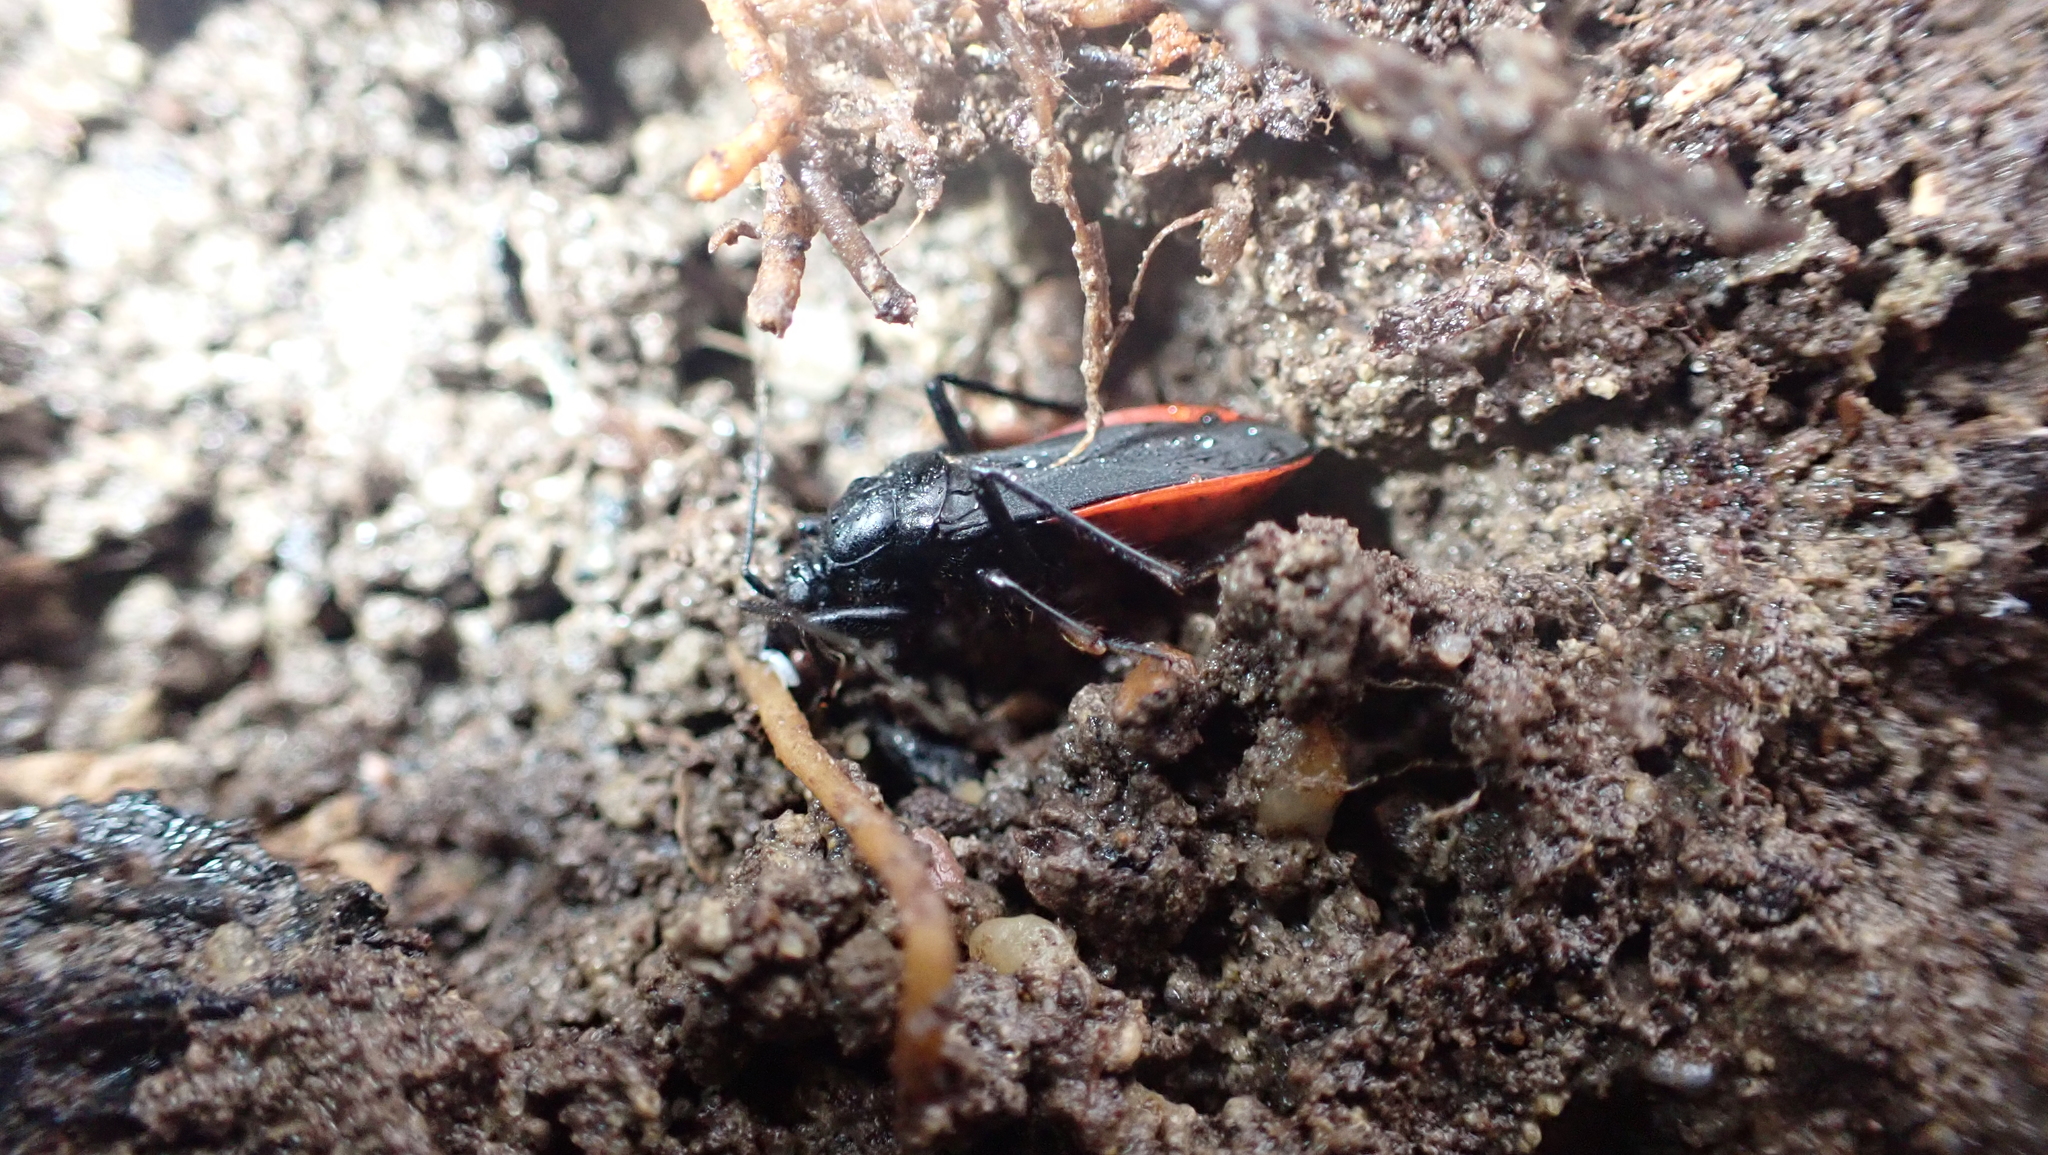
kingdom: Animalia
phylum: Arthropoda
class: Insecta
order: Hemiptera
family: Reduviidae
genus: Melanolestes
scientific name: Melanolestes picipes
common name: Assassin bug
